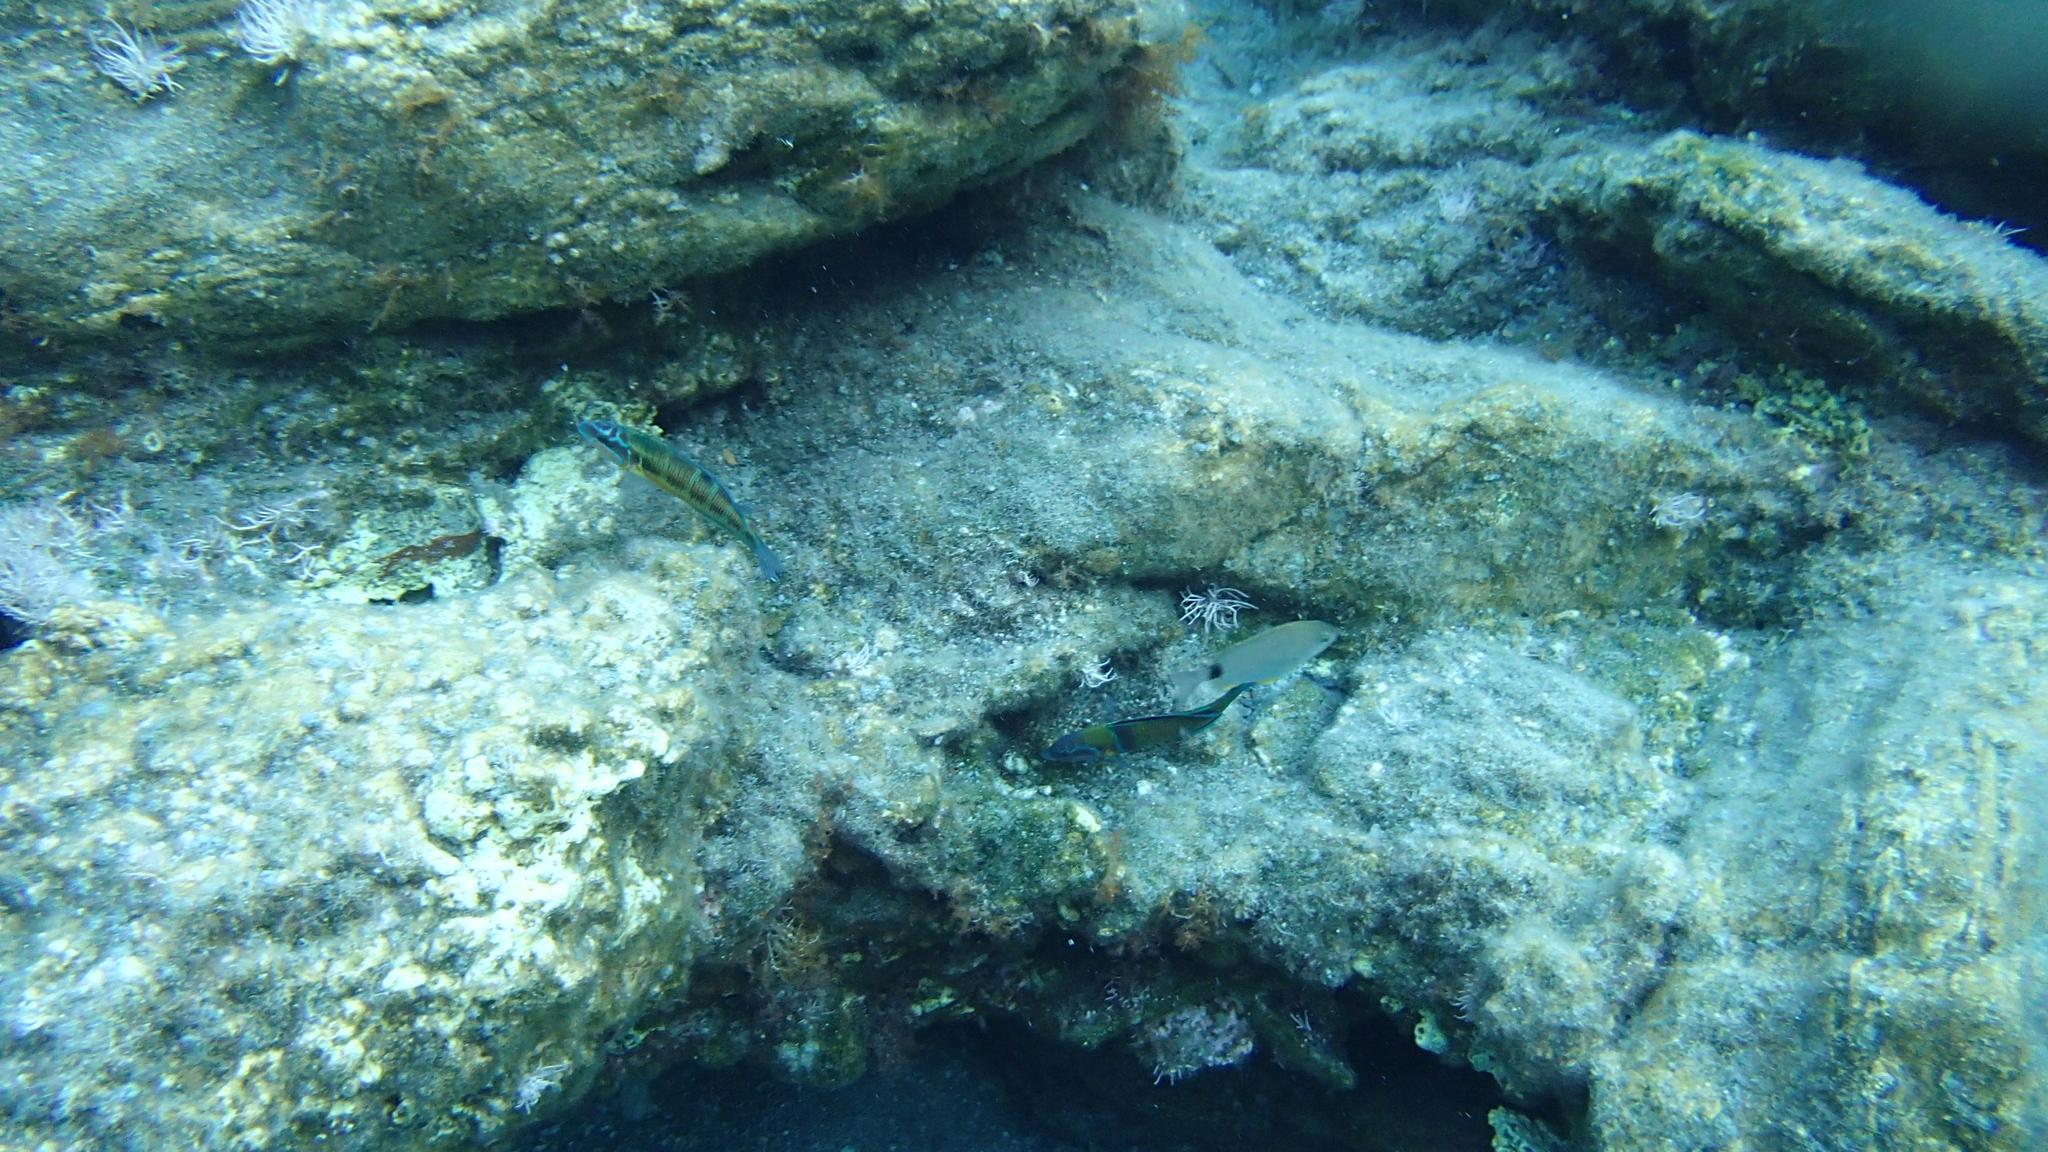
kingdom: Animalia
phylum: Chordata
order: Perciformes
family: Labridae
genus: Thalassoma
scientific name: Thalassoma pavo
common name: Ornate wrasse
